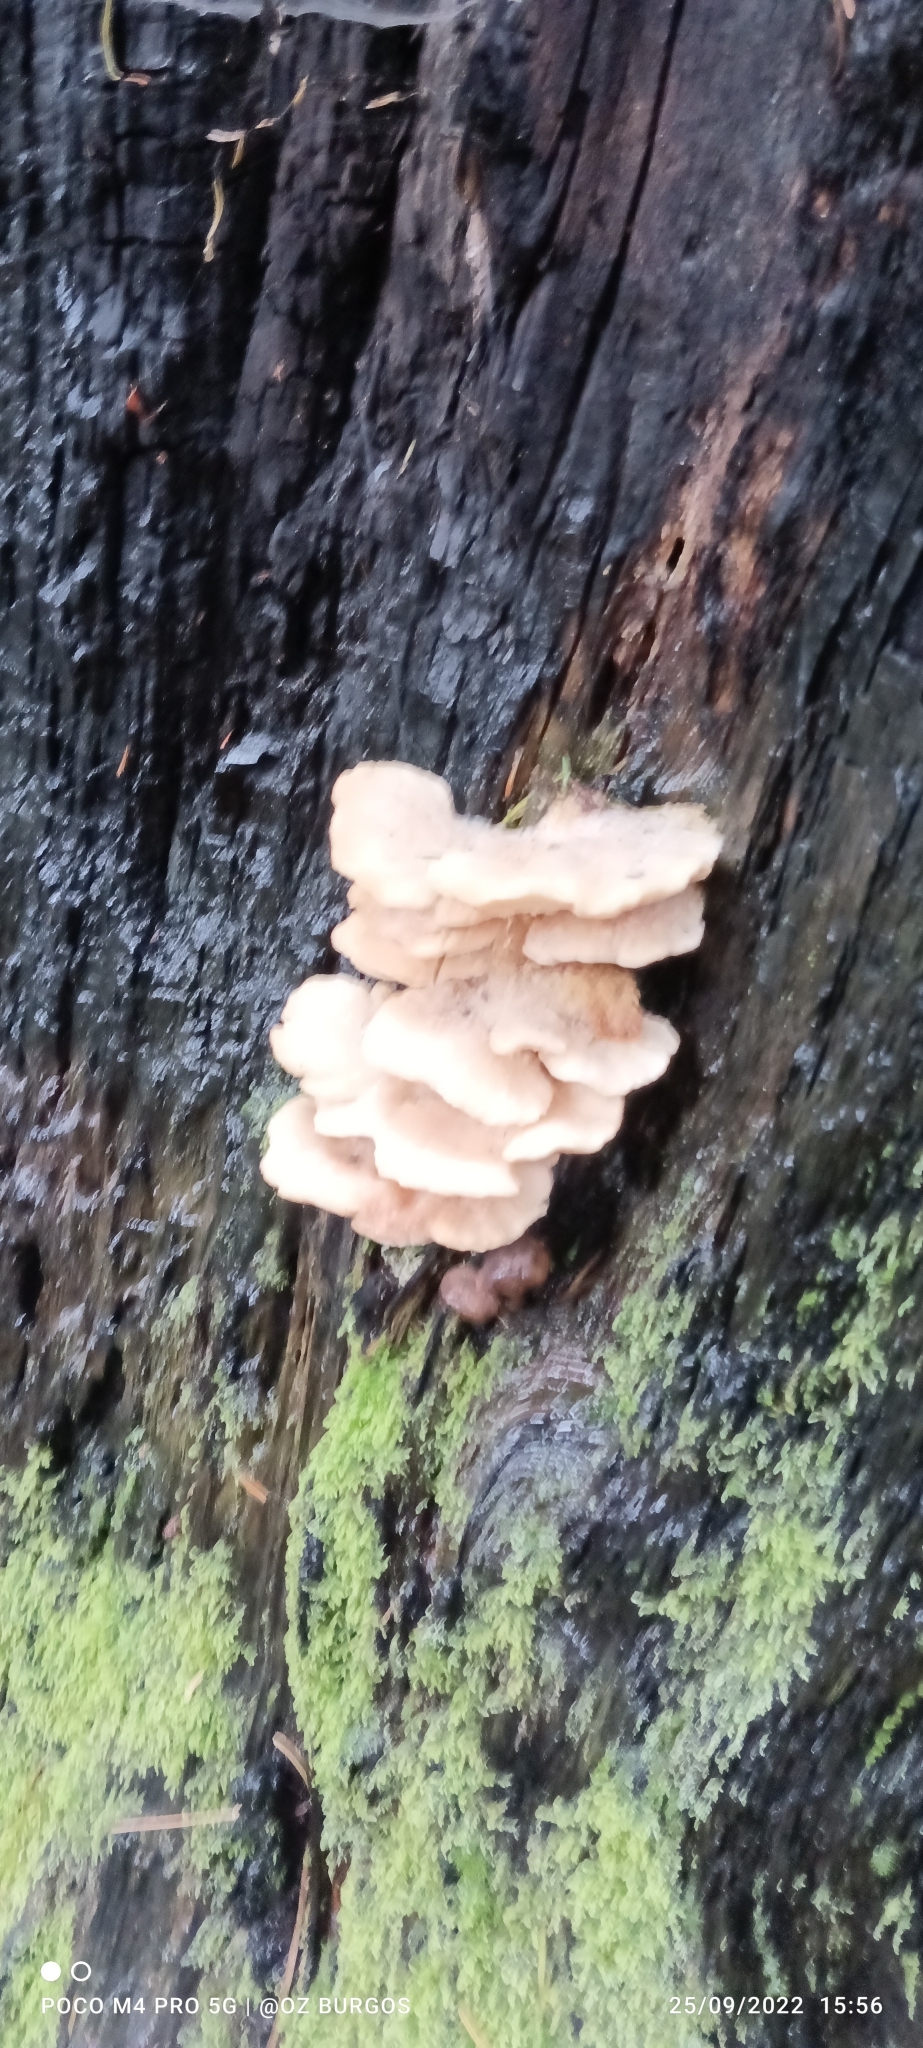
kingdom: Fungi
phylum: Basidiomycota
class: Agaricomycetes
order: Agaricales
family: Pleurotaceae
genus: Pleurotus
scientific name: Pleurotus pulmonarius
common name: Pale oyster
